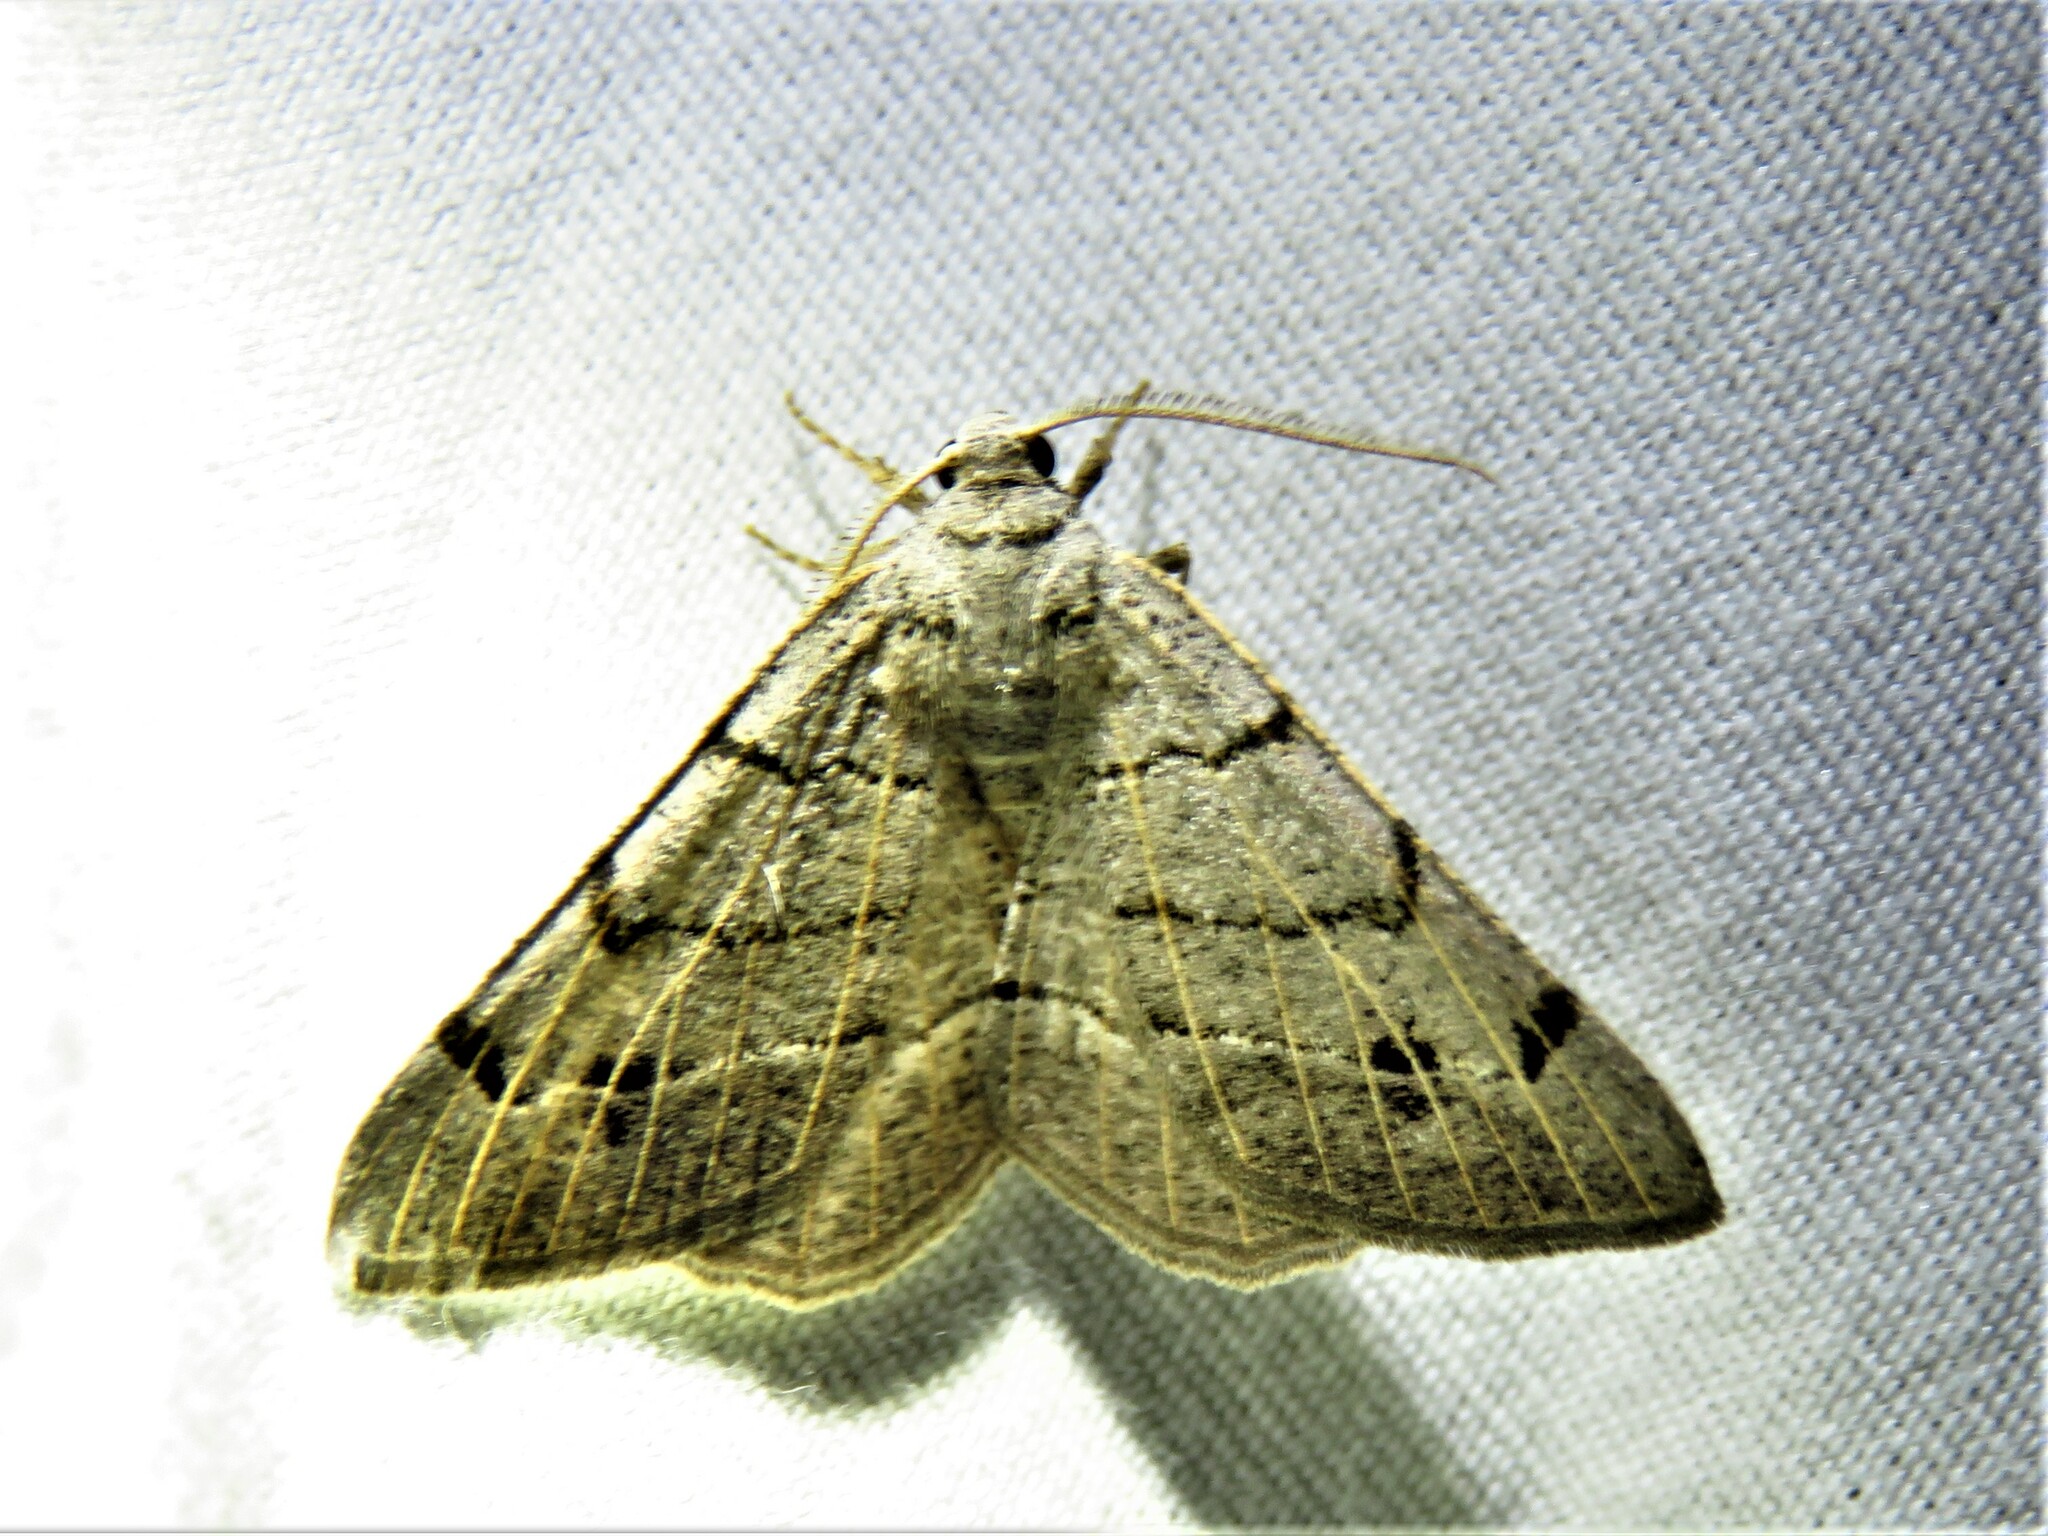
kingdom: Animalia
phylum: Arthropoda
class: Insecta
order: Lepidoptera
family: Geometridae
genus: Isturgia
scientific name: Isturgia dislocaria
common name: Pale-viened enconista
